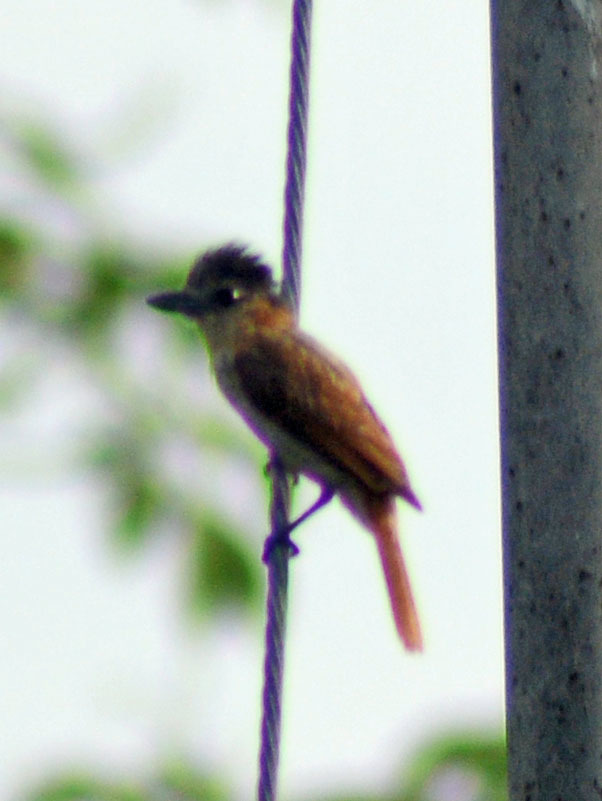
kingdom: Animalia
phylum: Chordata
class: Aves
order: Passeriformes
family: Cotingidae
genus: Pachyramphus
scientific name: Pachyramphus aglaiae
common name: Rose-throated becard
